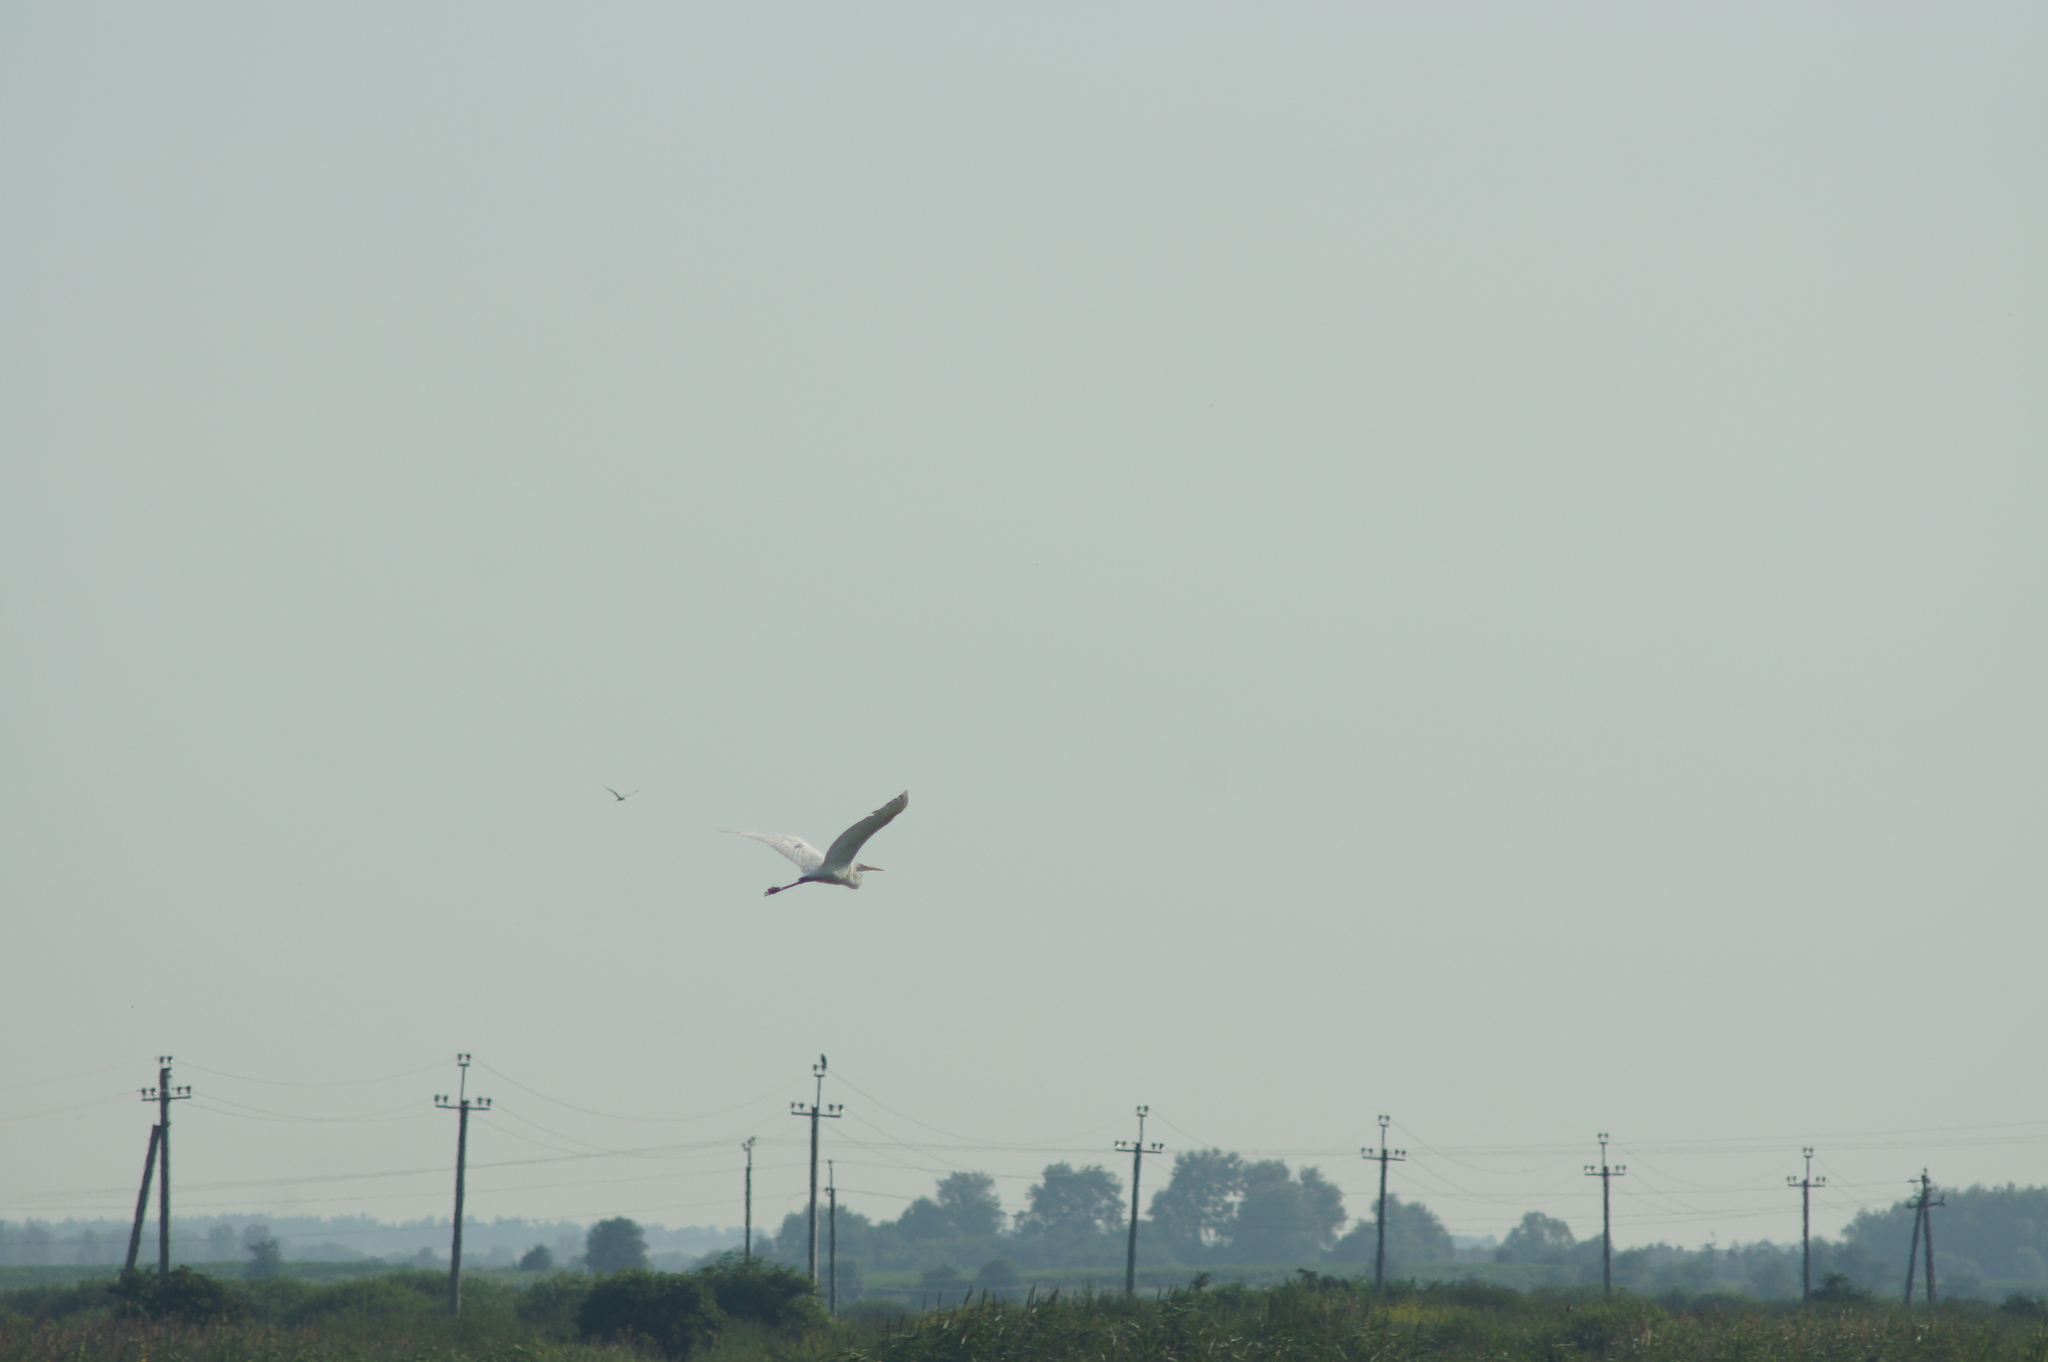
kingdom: Animalia
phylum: Chordata
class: Aves
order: Pelecaniformes
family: Ardeidae
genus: Ardea
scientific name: Ardea alba
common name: Great egret
